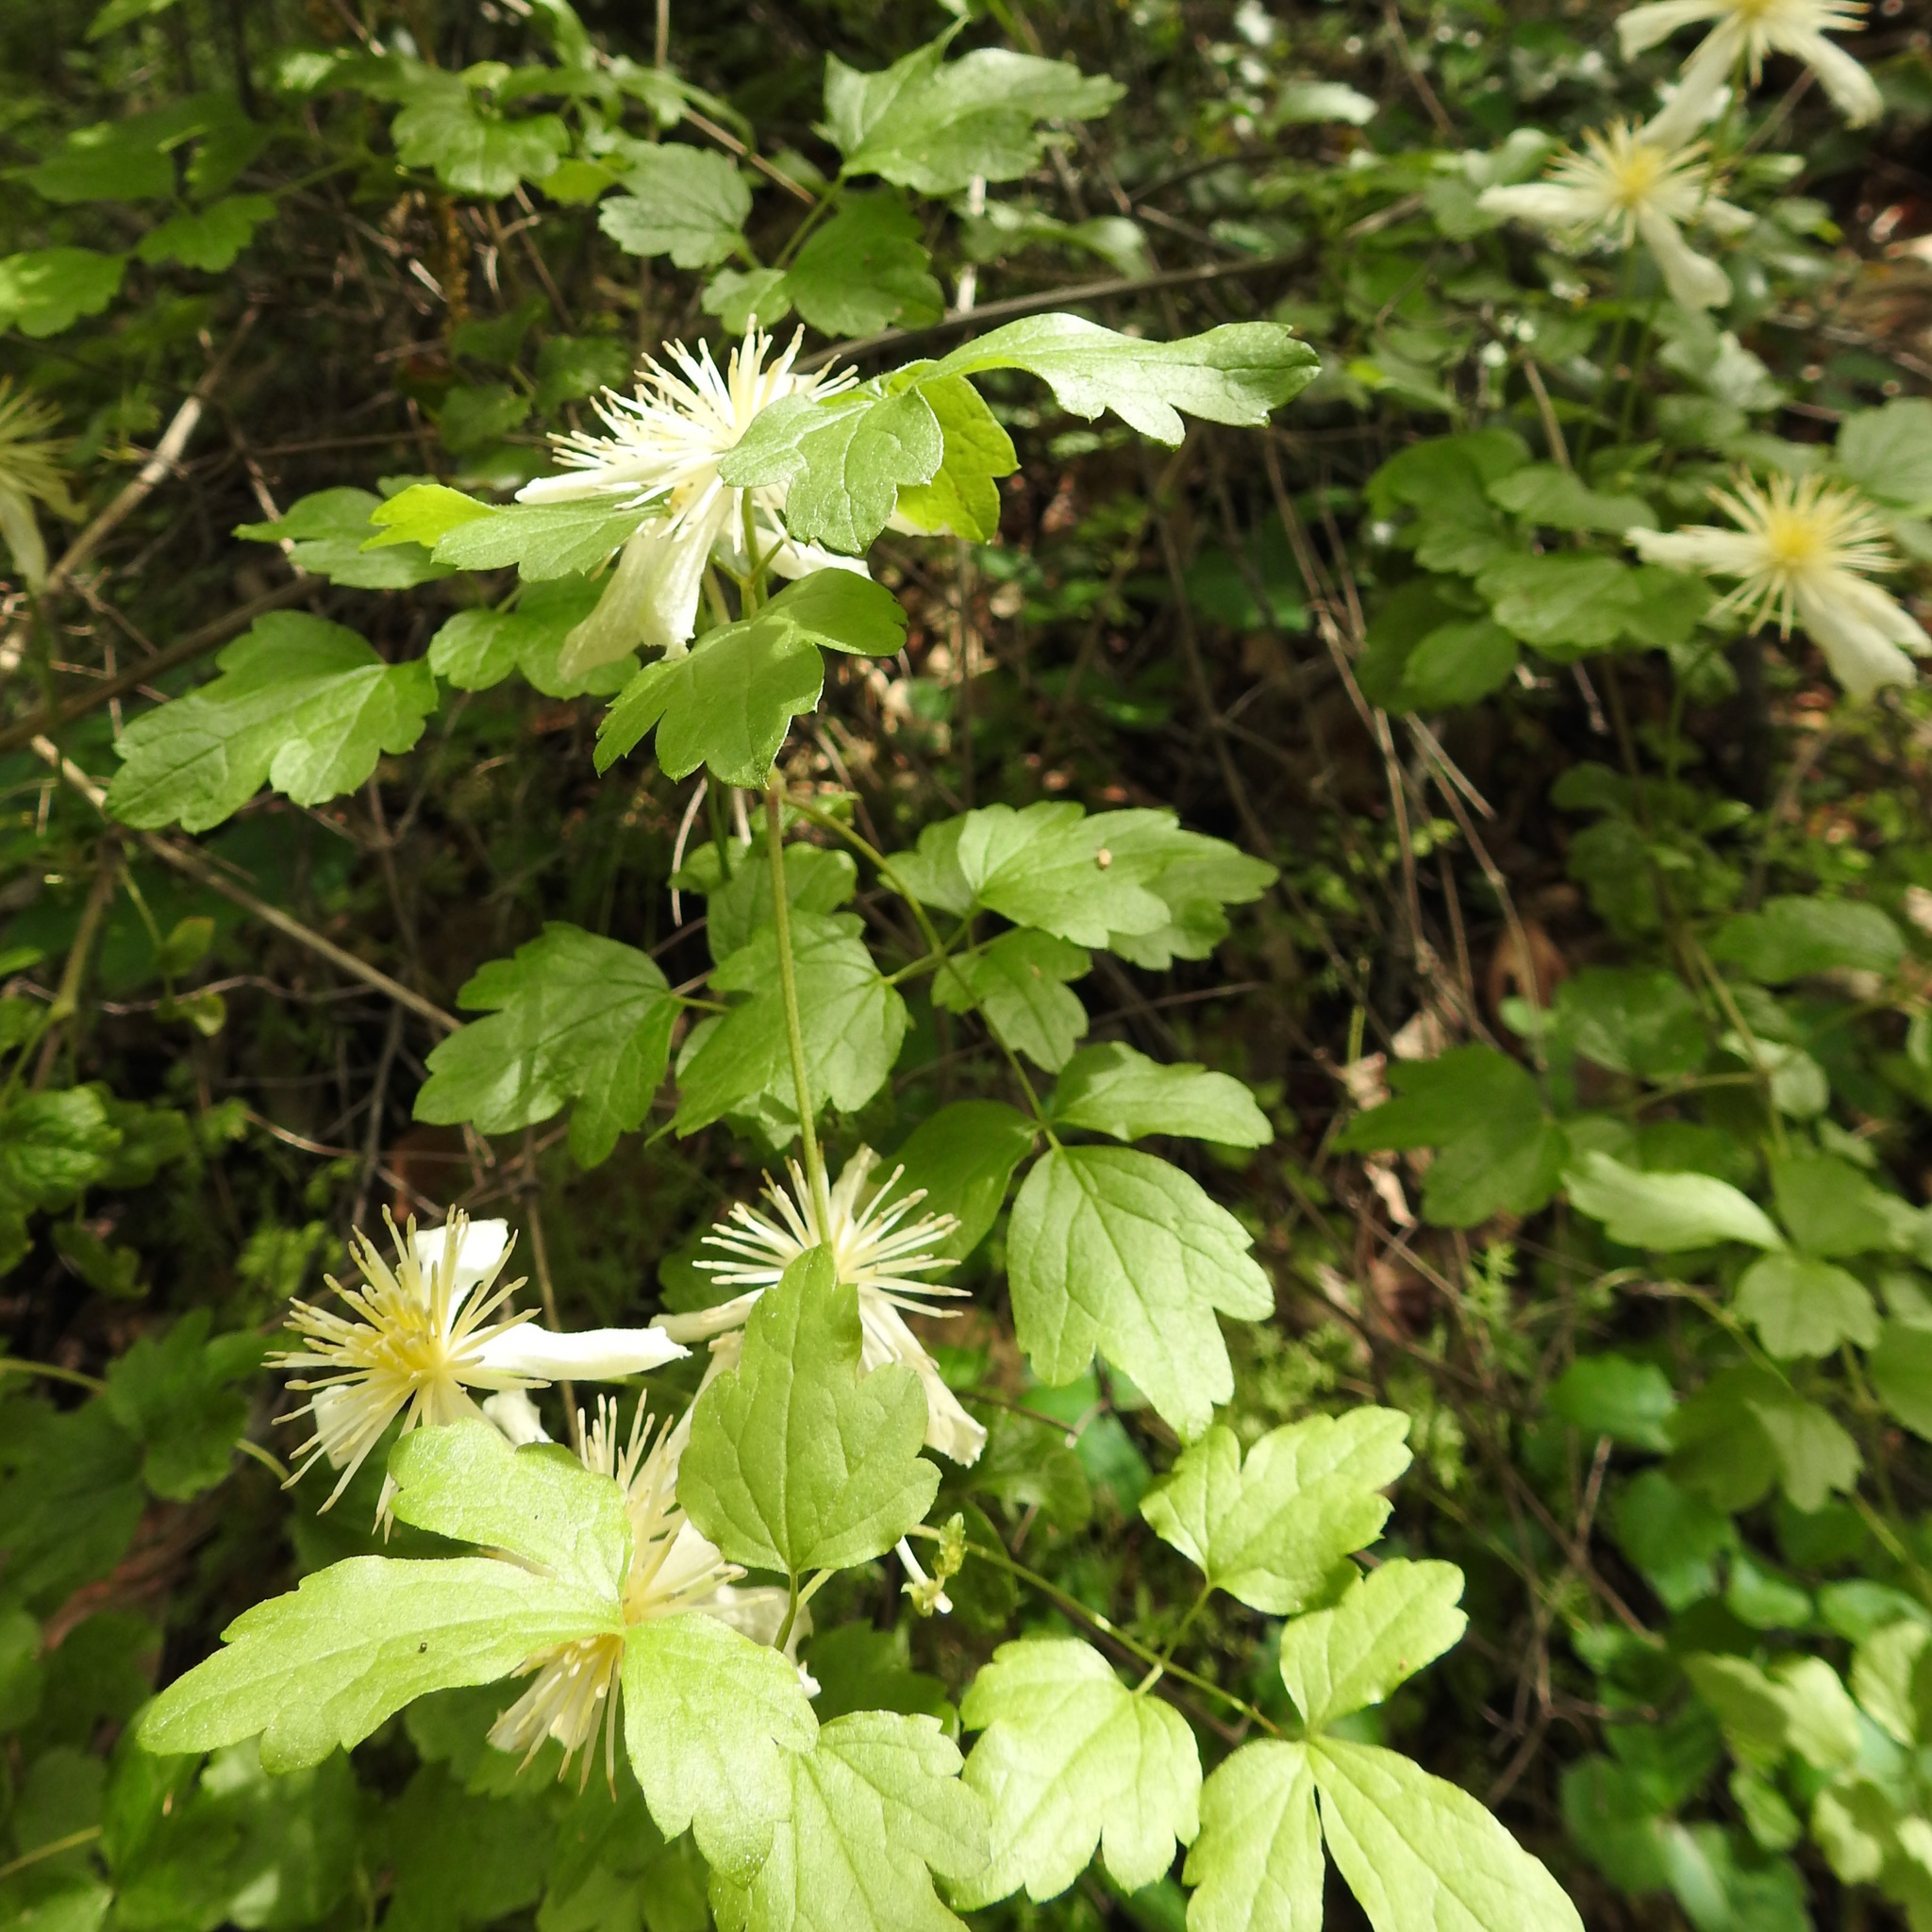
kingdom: Plantae
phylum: Tracheophyta
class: Magnoliopsida
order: Ranunculales
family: Ranunculaceae
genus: Clematis
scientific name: Clematis lasiantha
